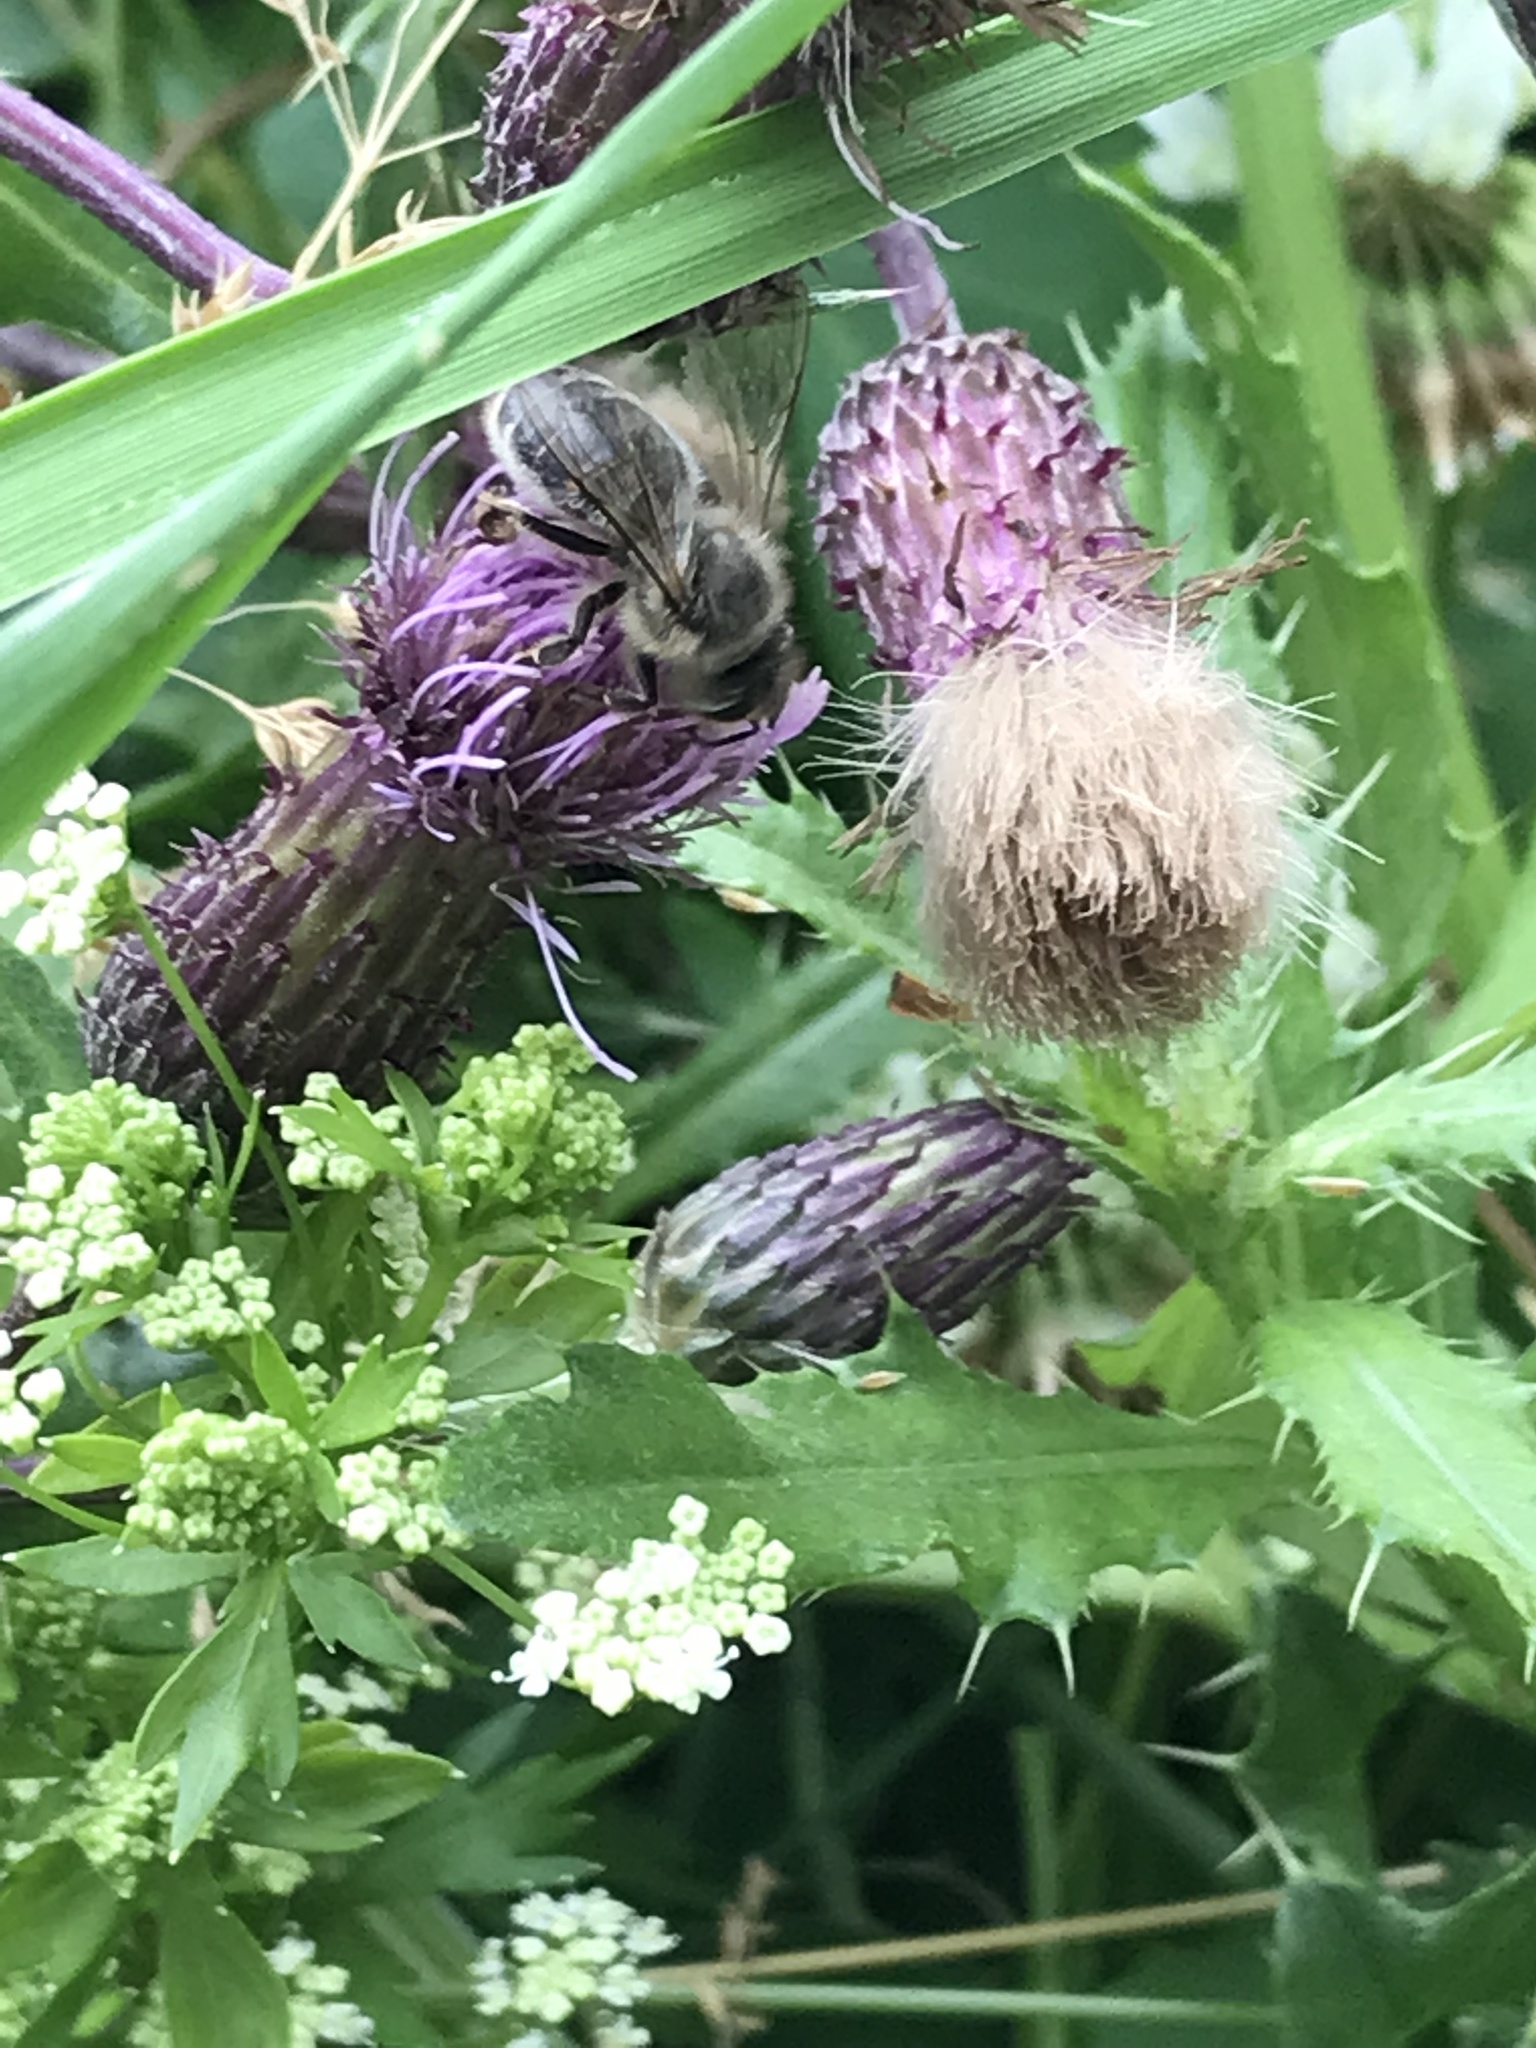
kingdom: Animalia
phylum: Arthropoda
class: Insecta
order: Hymenoptera
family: Apidae
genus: Apis
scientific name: Apis mellifera
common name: Honey bee
